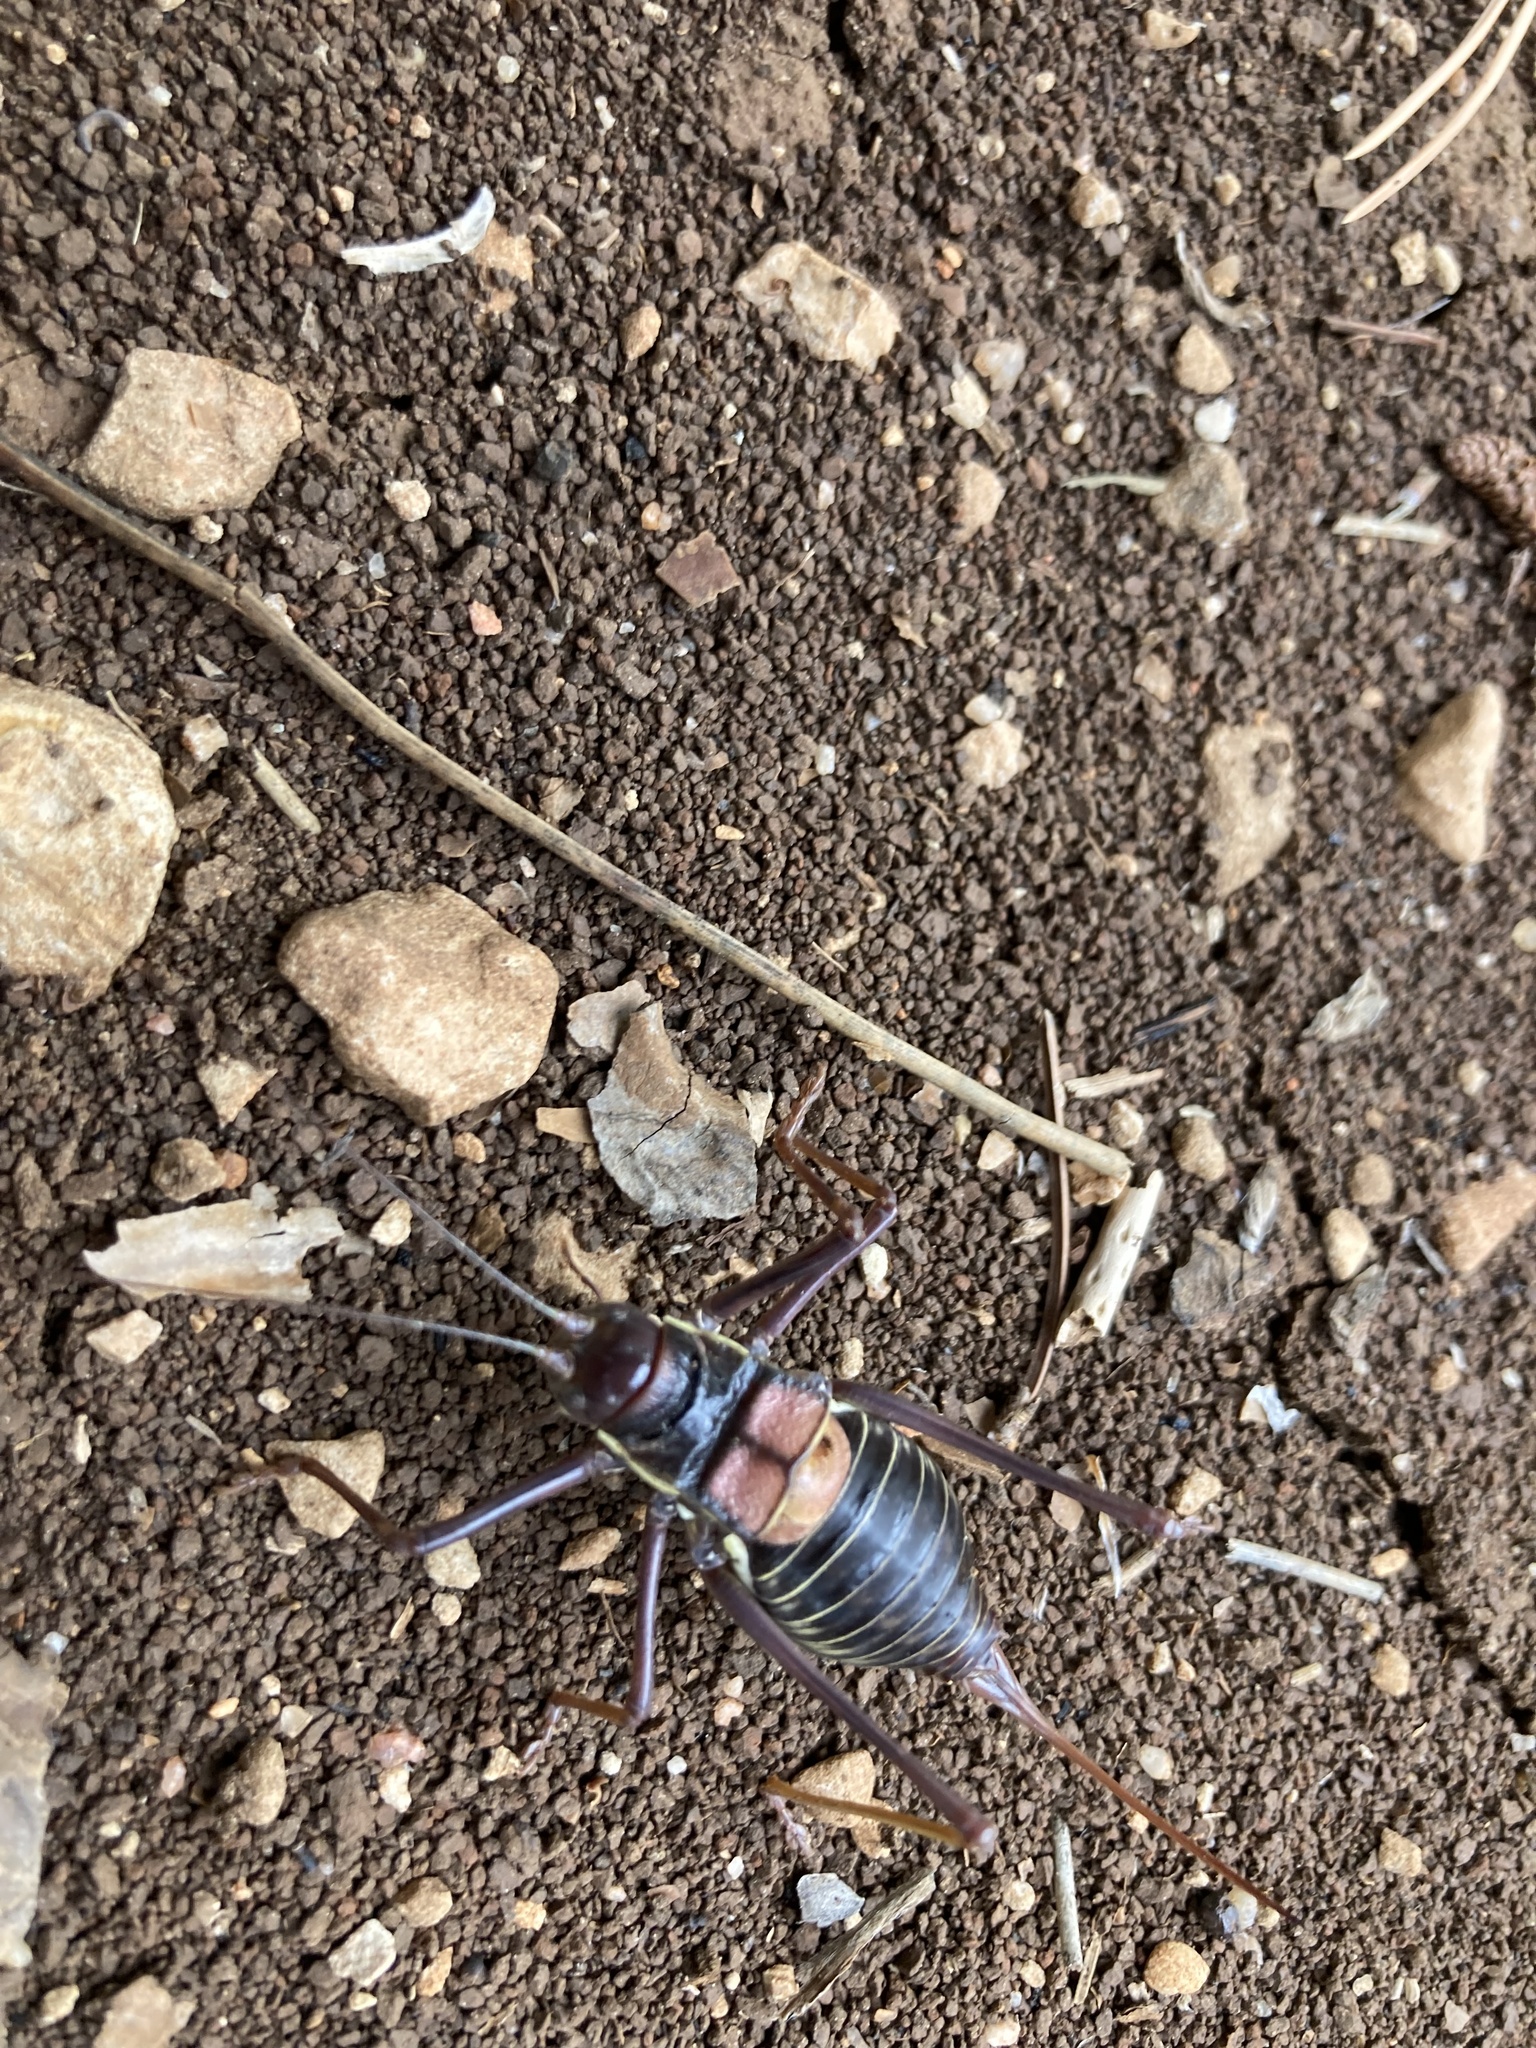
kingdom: Animalia
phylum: Arthropoda
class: Insecta
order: Orthoptera
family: Tettigoniidae
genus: Parasteropleurus
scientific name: Parasteropleurus perezii
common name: Perez's saddle bush-cricke
